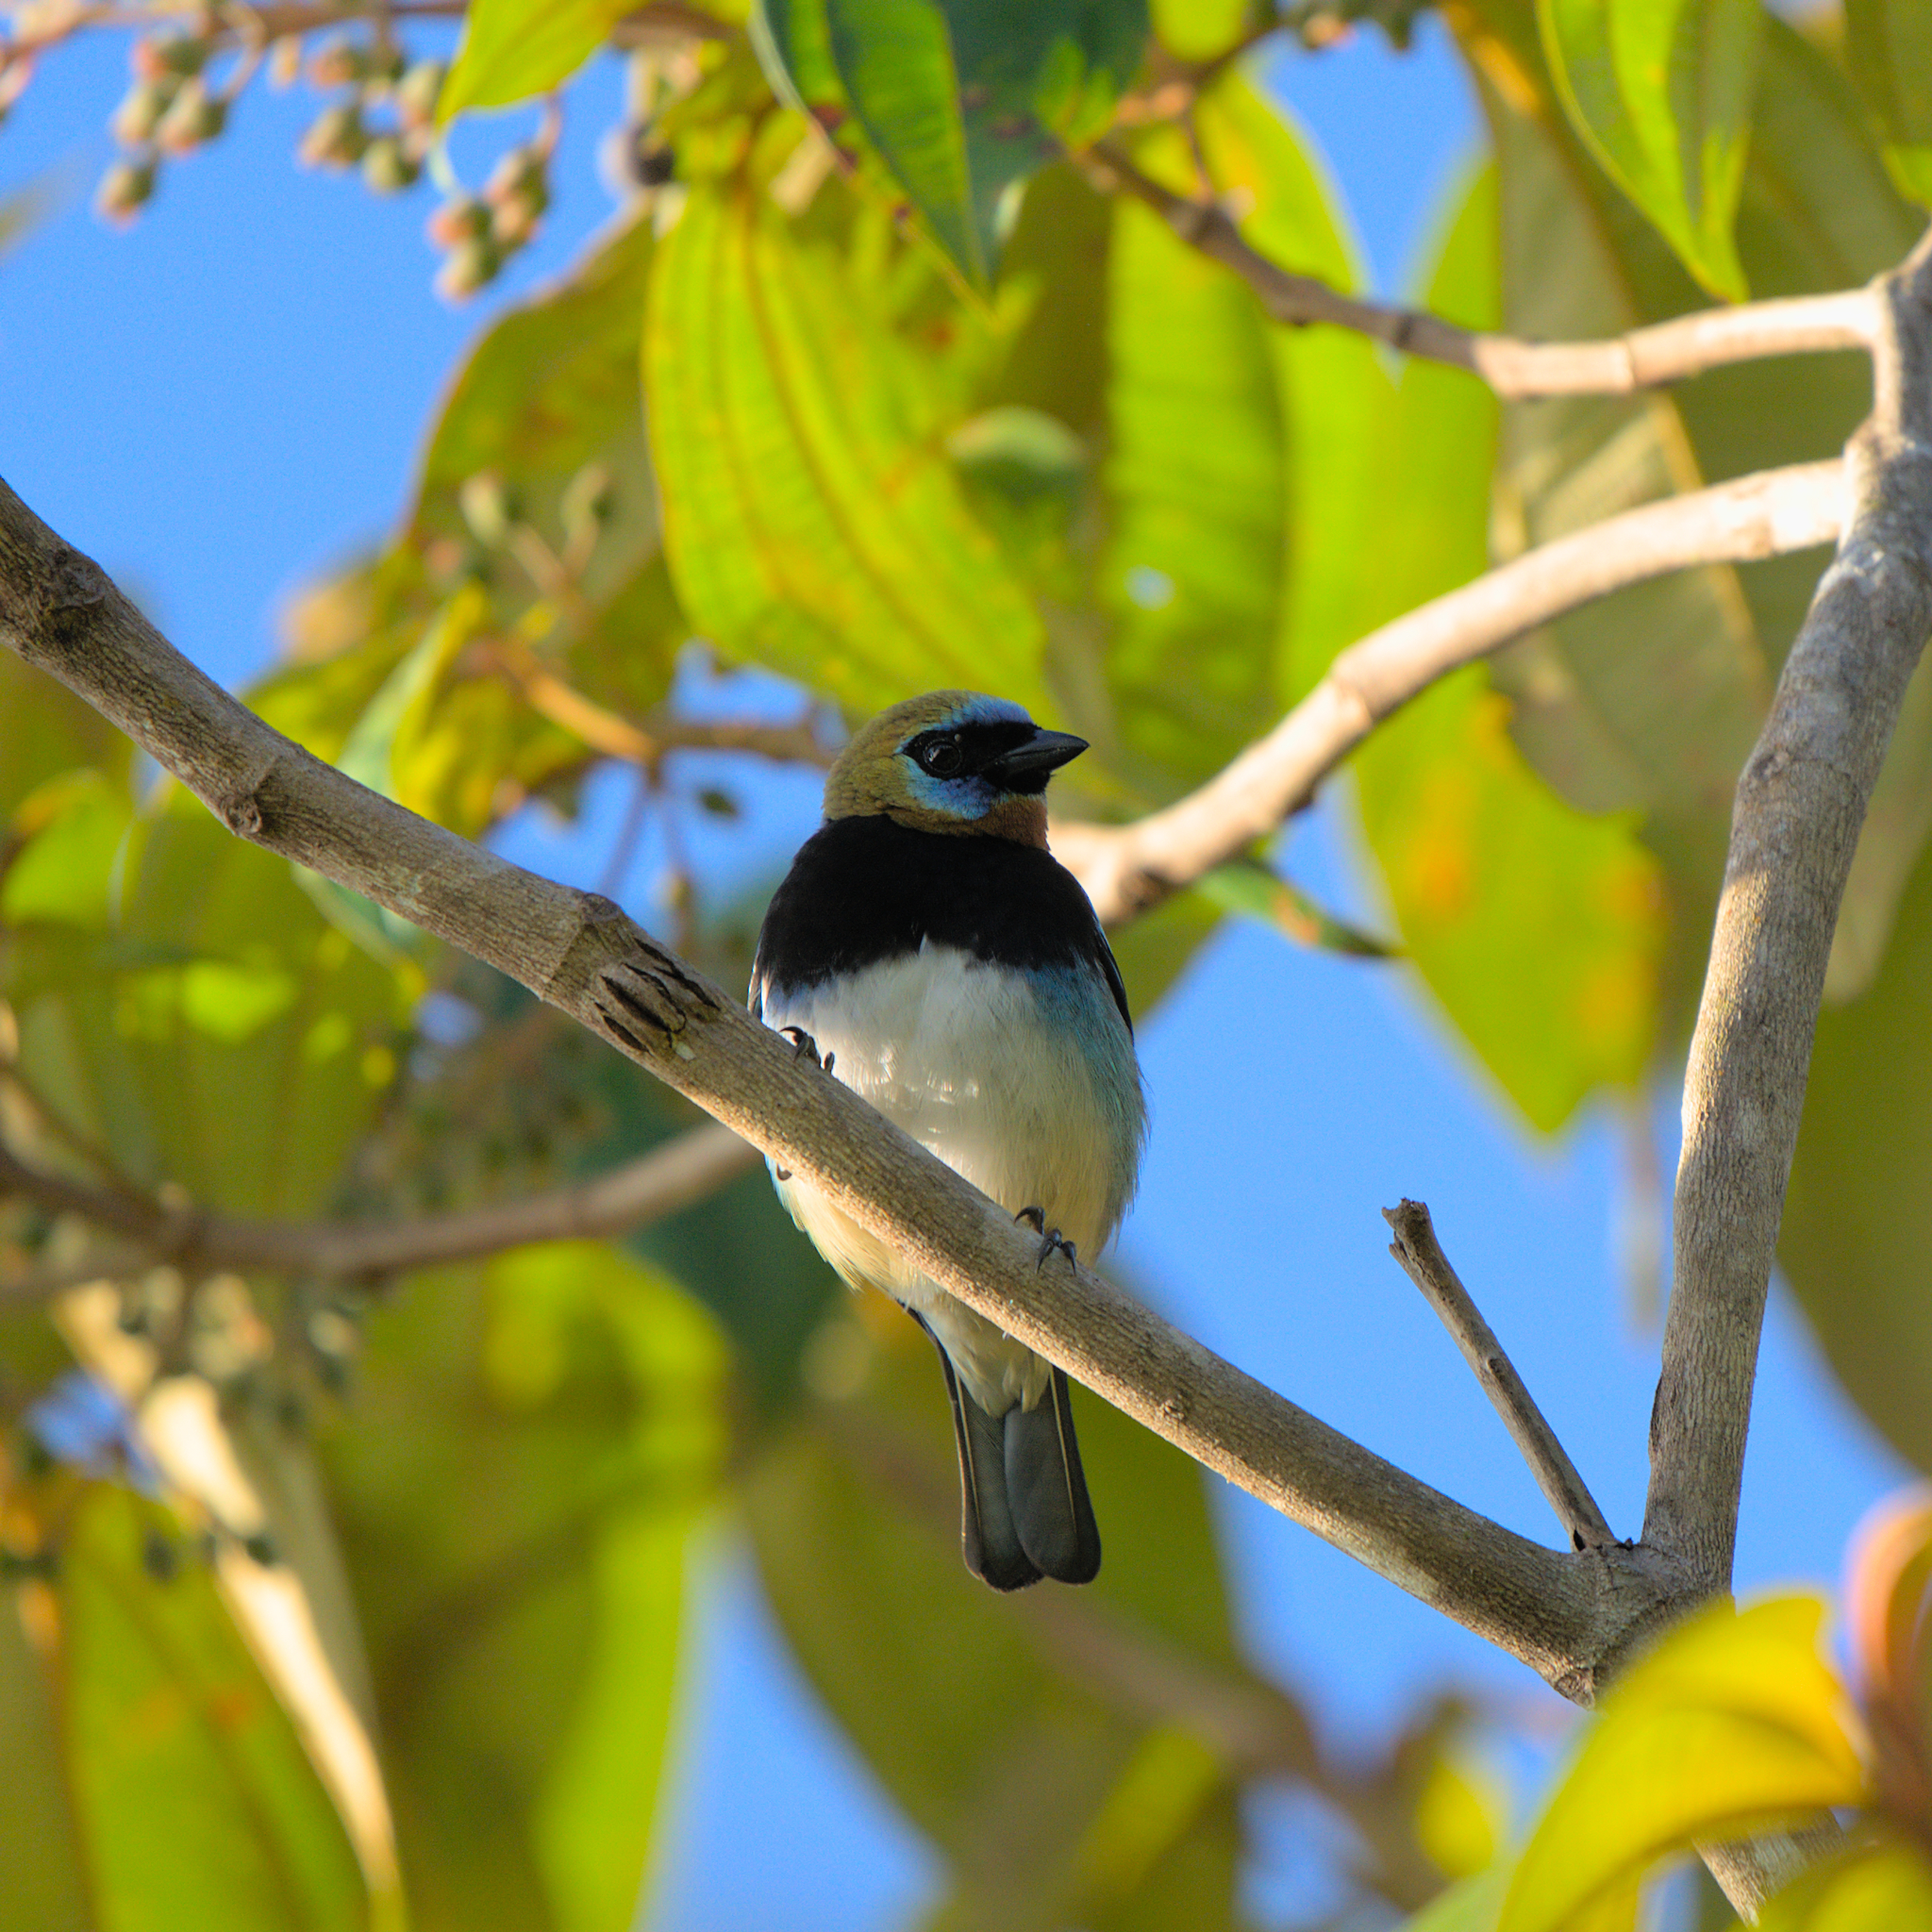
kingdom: Animalia
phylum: Chordata
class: Aves
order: Passeriformes
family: Thraupidae
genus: Stilpnia
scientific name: Stilpnia larvata
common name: Golden-hooded tanager
